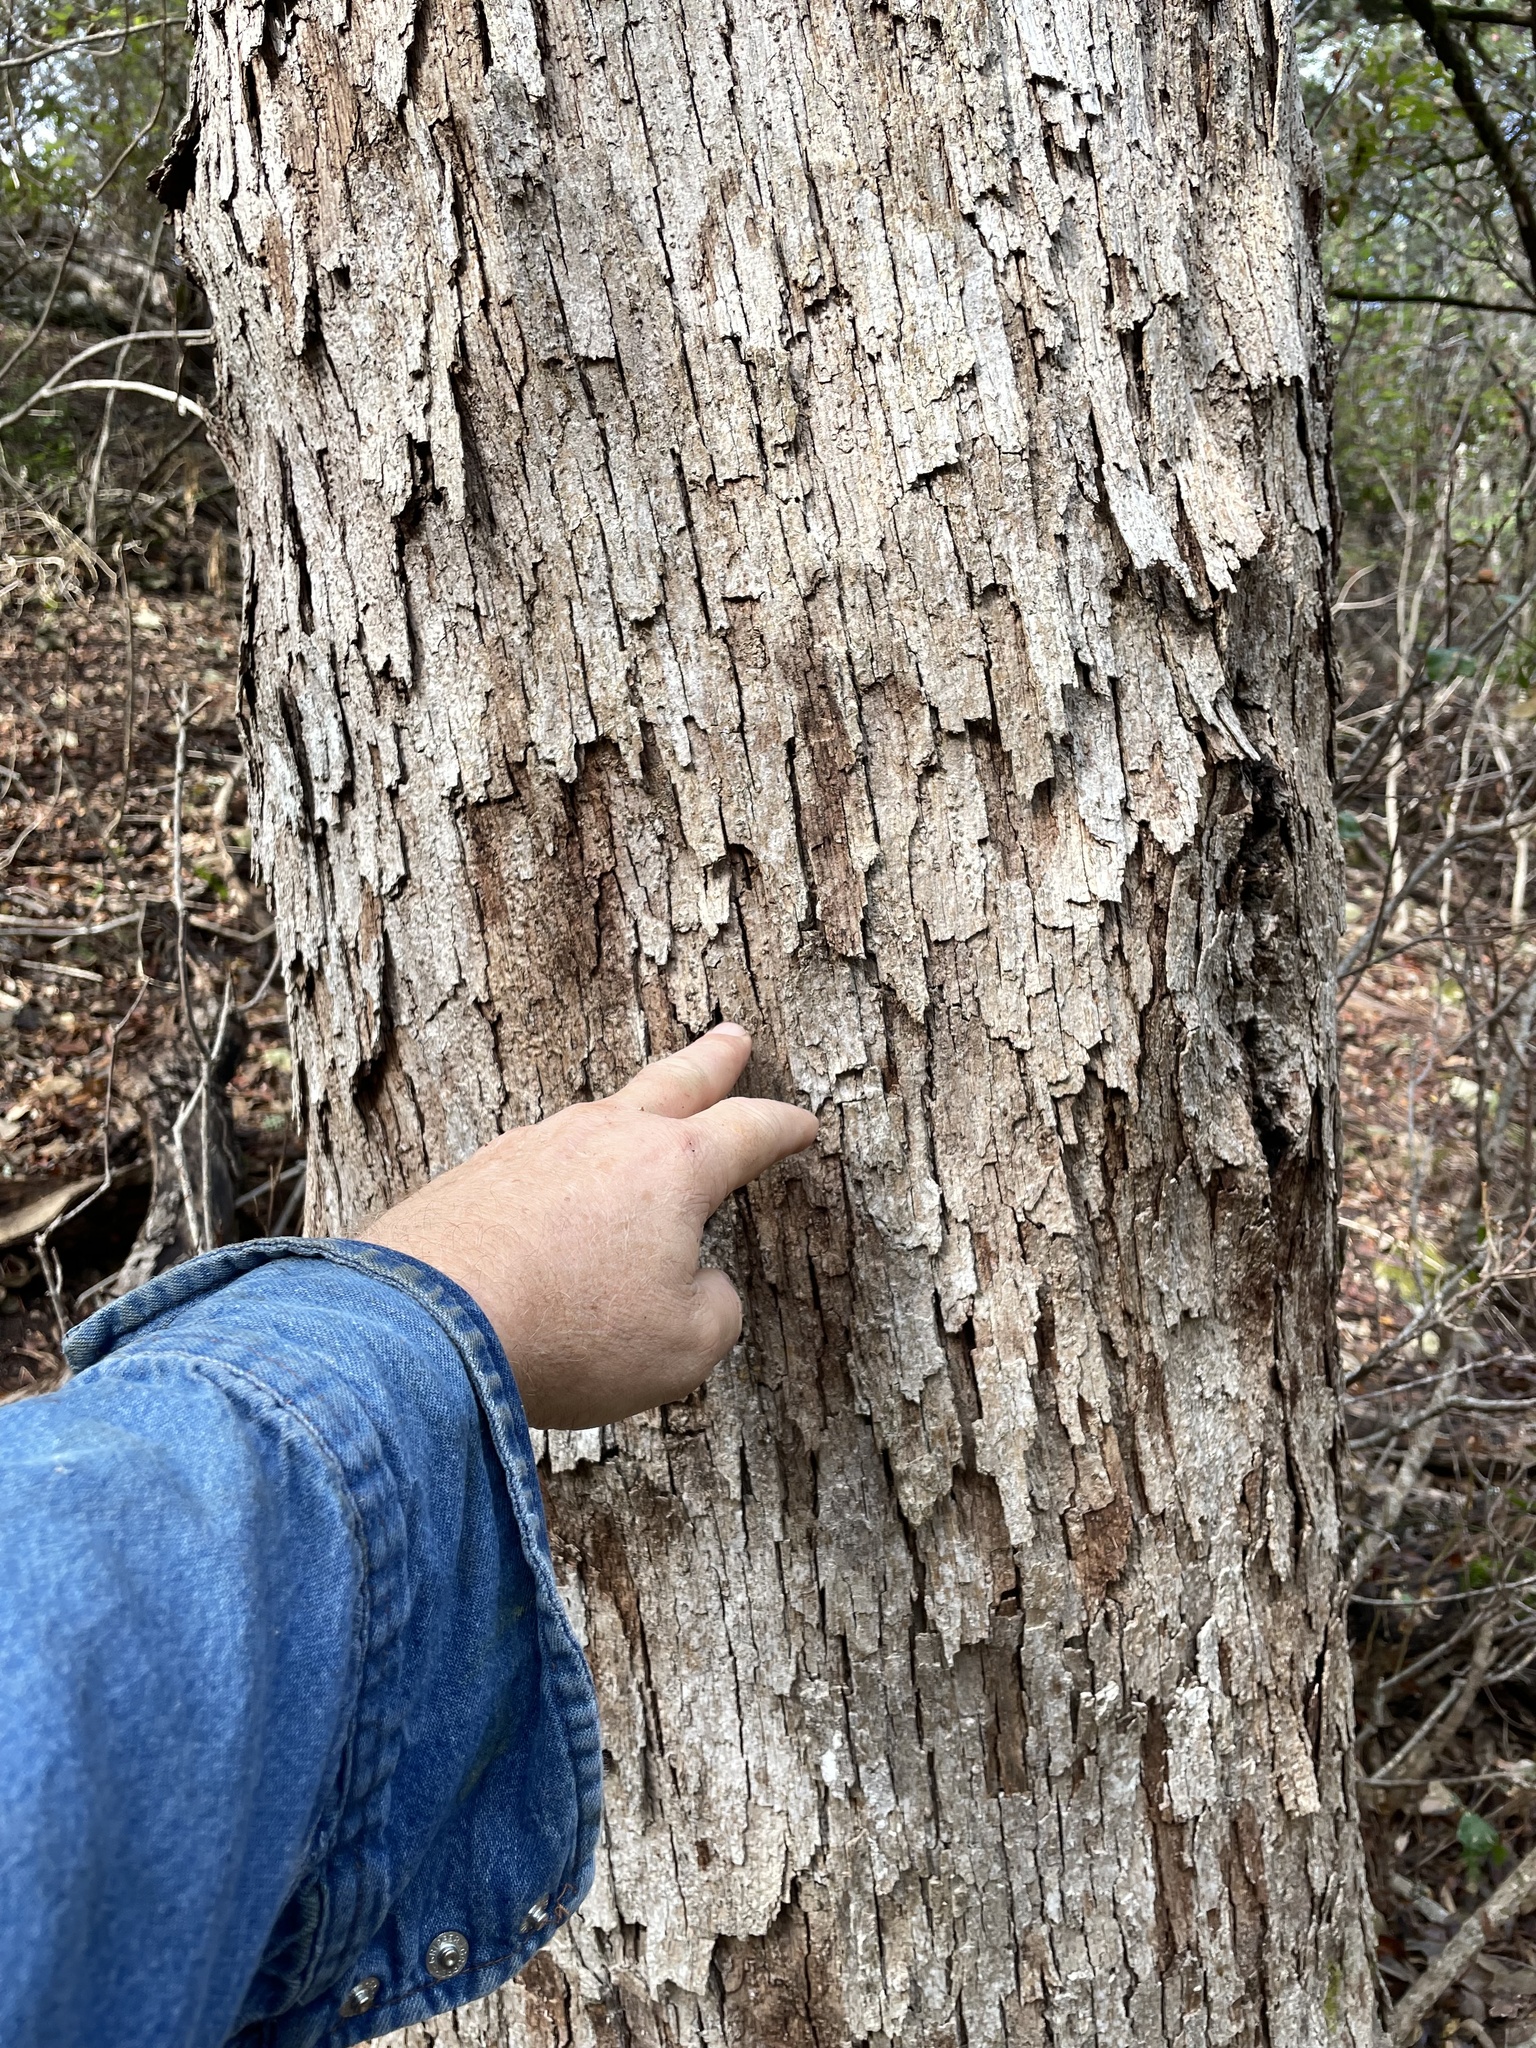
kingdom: Plantae
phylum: Tracheophyta
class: Magnoliopsida
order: Fagales
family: Fagaceae
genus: Quercus
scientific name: Quercus sinuata
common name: Durand oak
